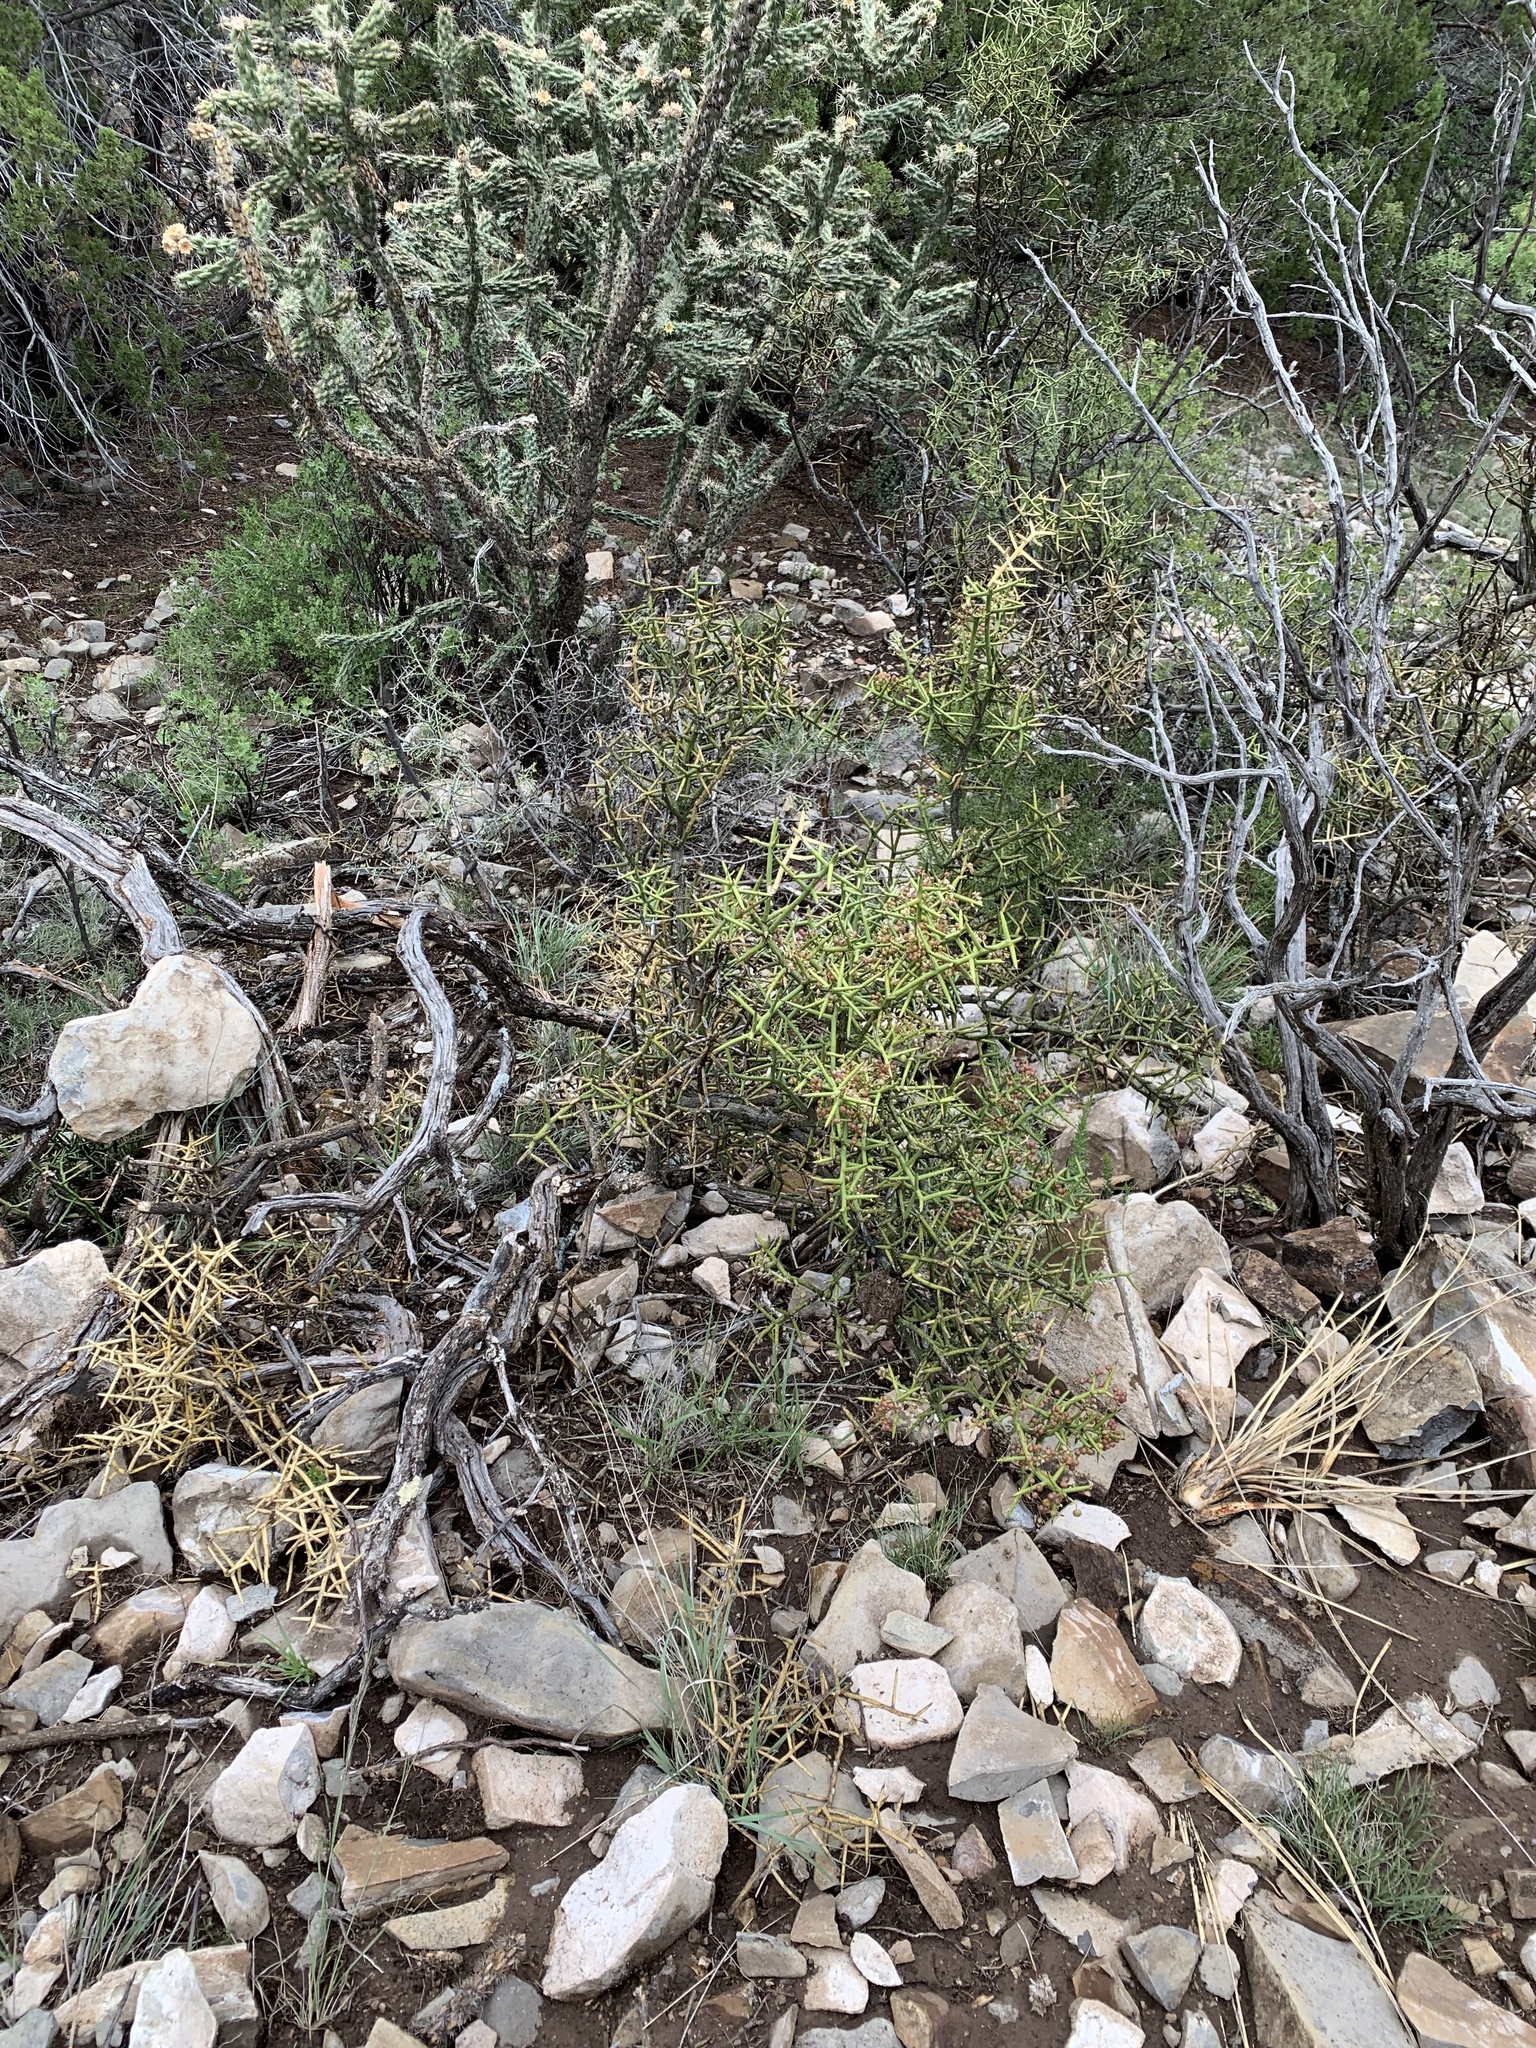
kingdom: Plantae
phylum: Tracheophyta
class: Magnoliopsida
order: Brassicales
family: Koeberliniaceae
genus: Koeberlinia
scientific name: Koeberlinia spinosa
